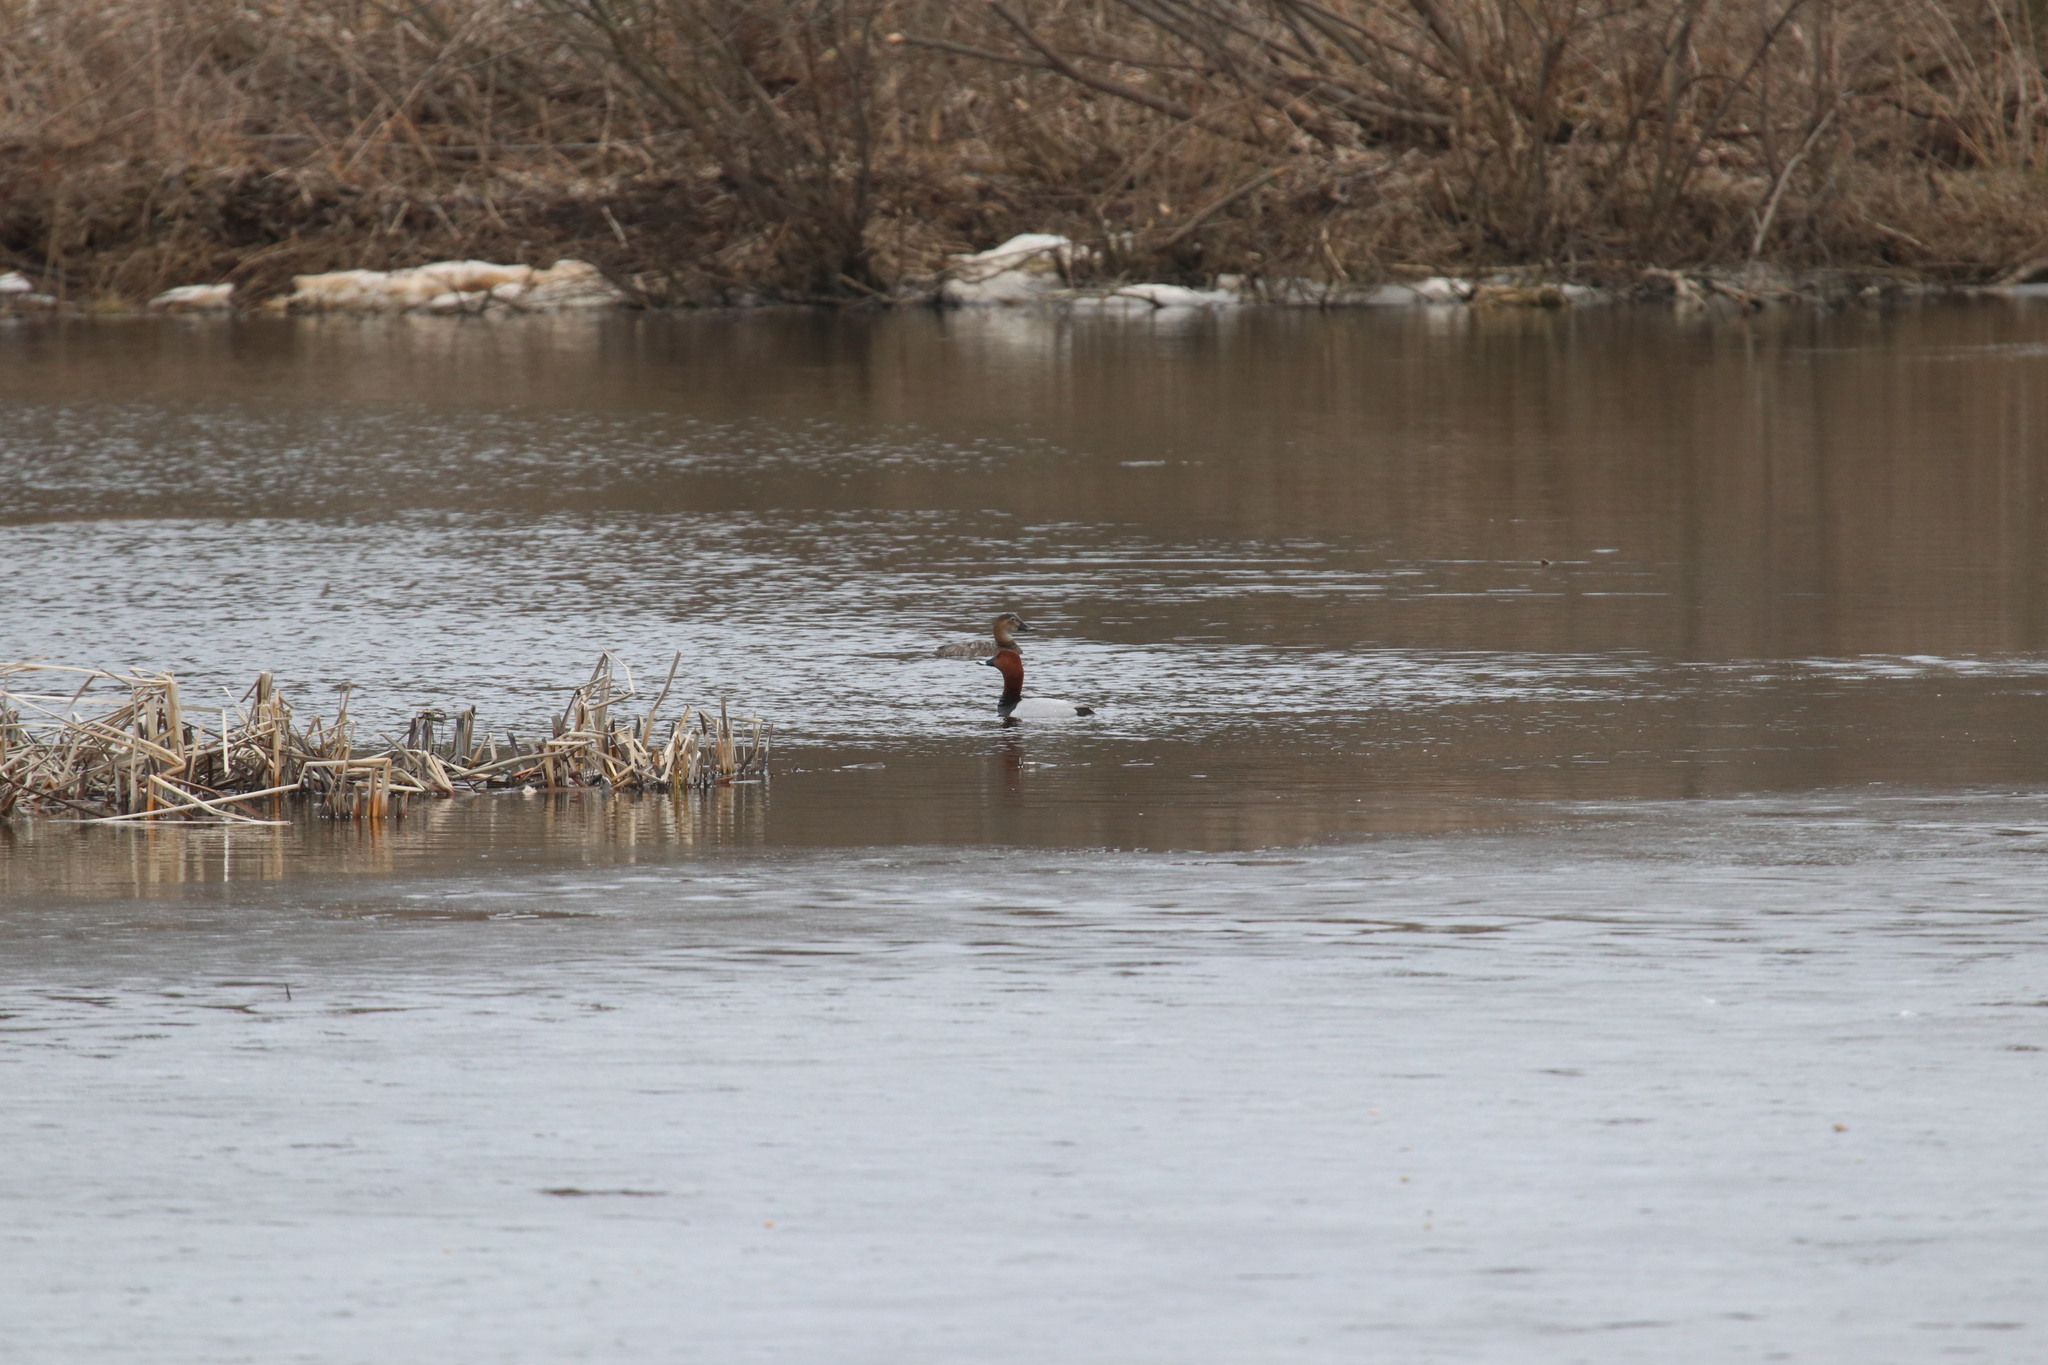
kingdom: Animalia
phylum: Chordata
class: Aves
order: Anseriformes
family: Anatidae
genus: Aythya
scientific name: Aythya ferina
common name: Common pochard
